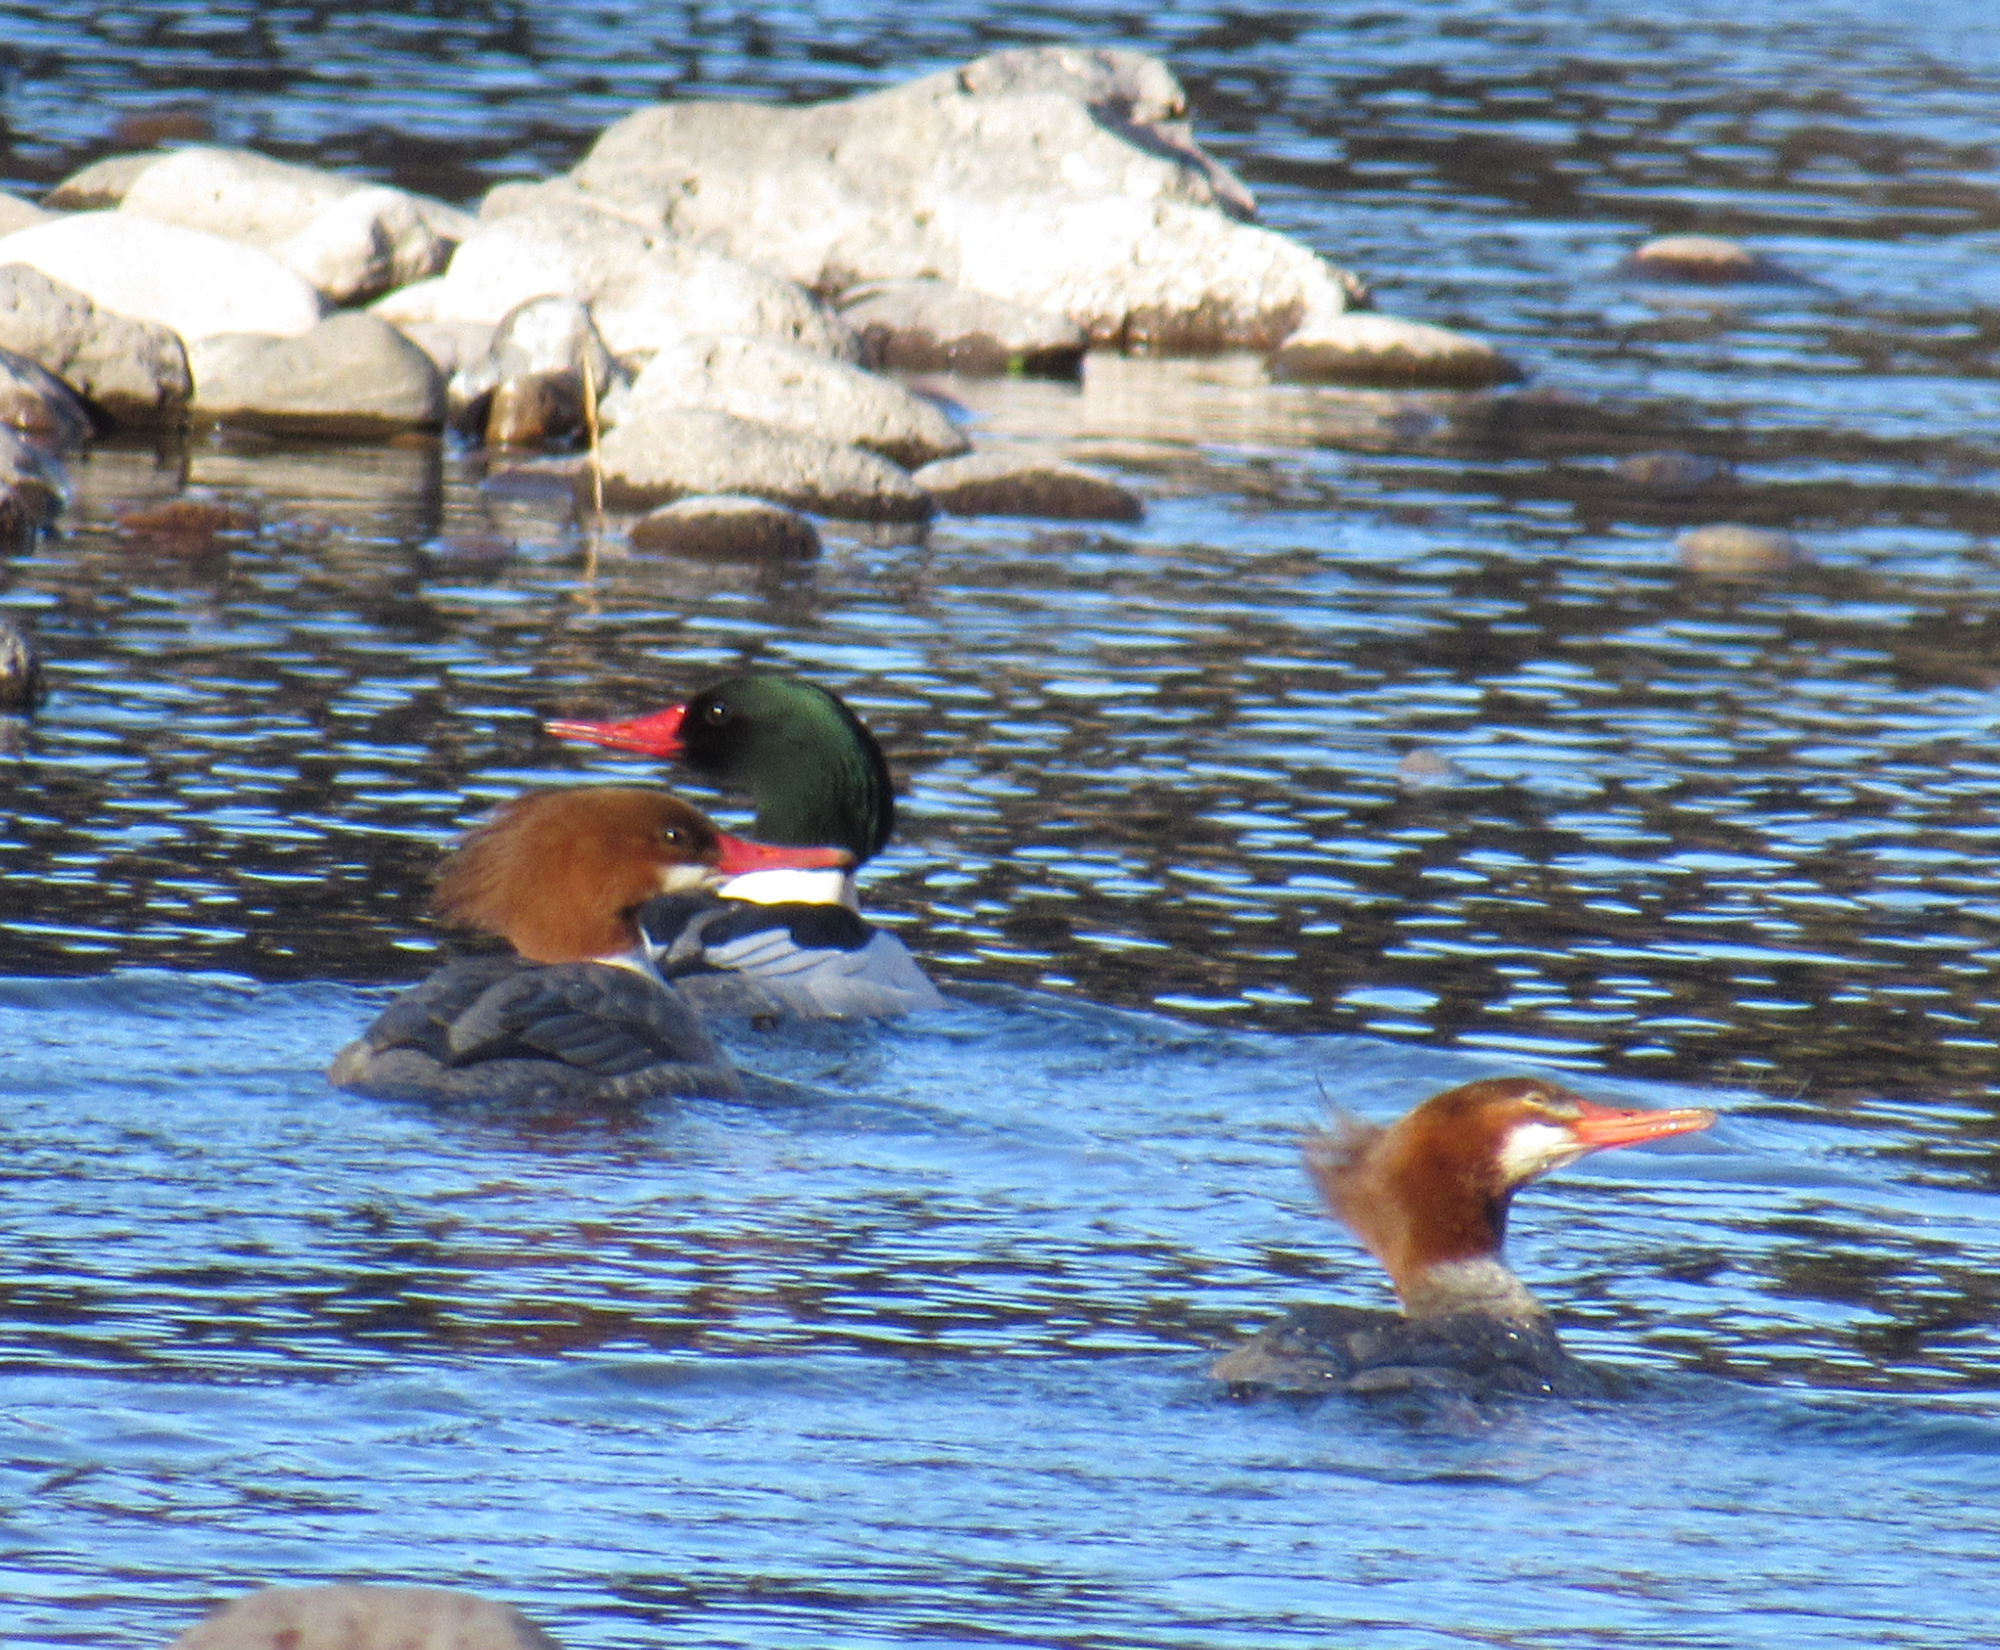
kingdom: Animalia
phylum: Chordata
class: Aves
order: Anseriformes
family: Anatidae
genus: Mergus
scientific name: Mergus merganser
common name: Common merganser
